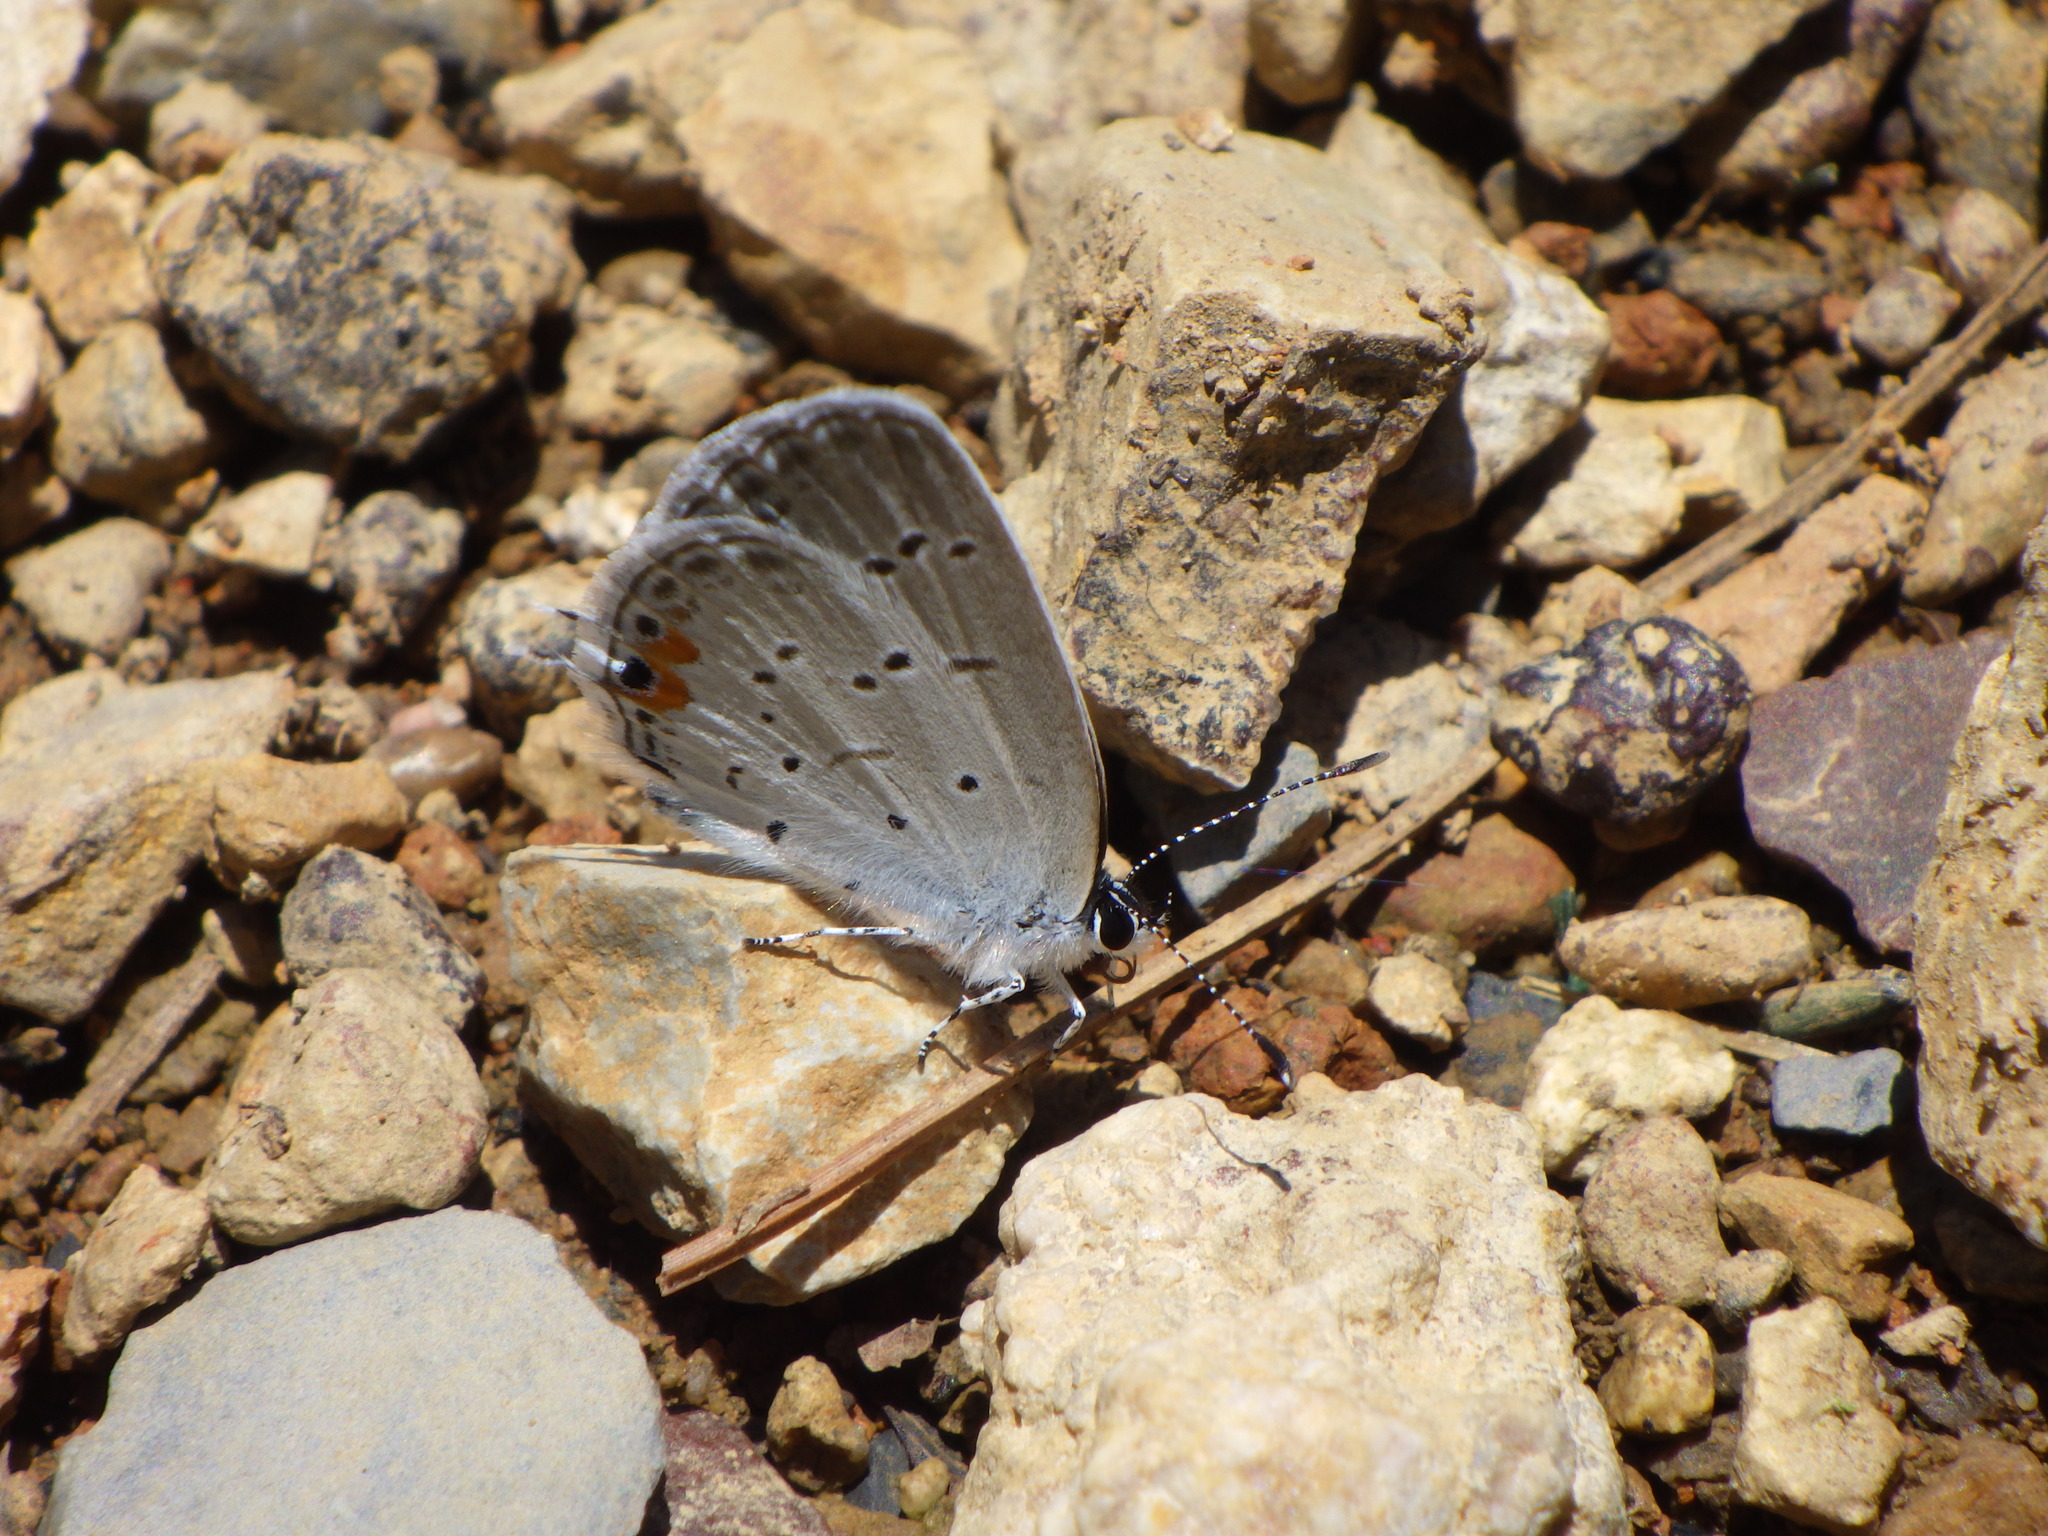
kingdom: Animalia
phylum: Arthropoda
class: Insecta
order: Lepidoptera
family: Lycaenidae
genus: Elkalyce
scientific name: Elkalyce comyntas
